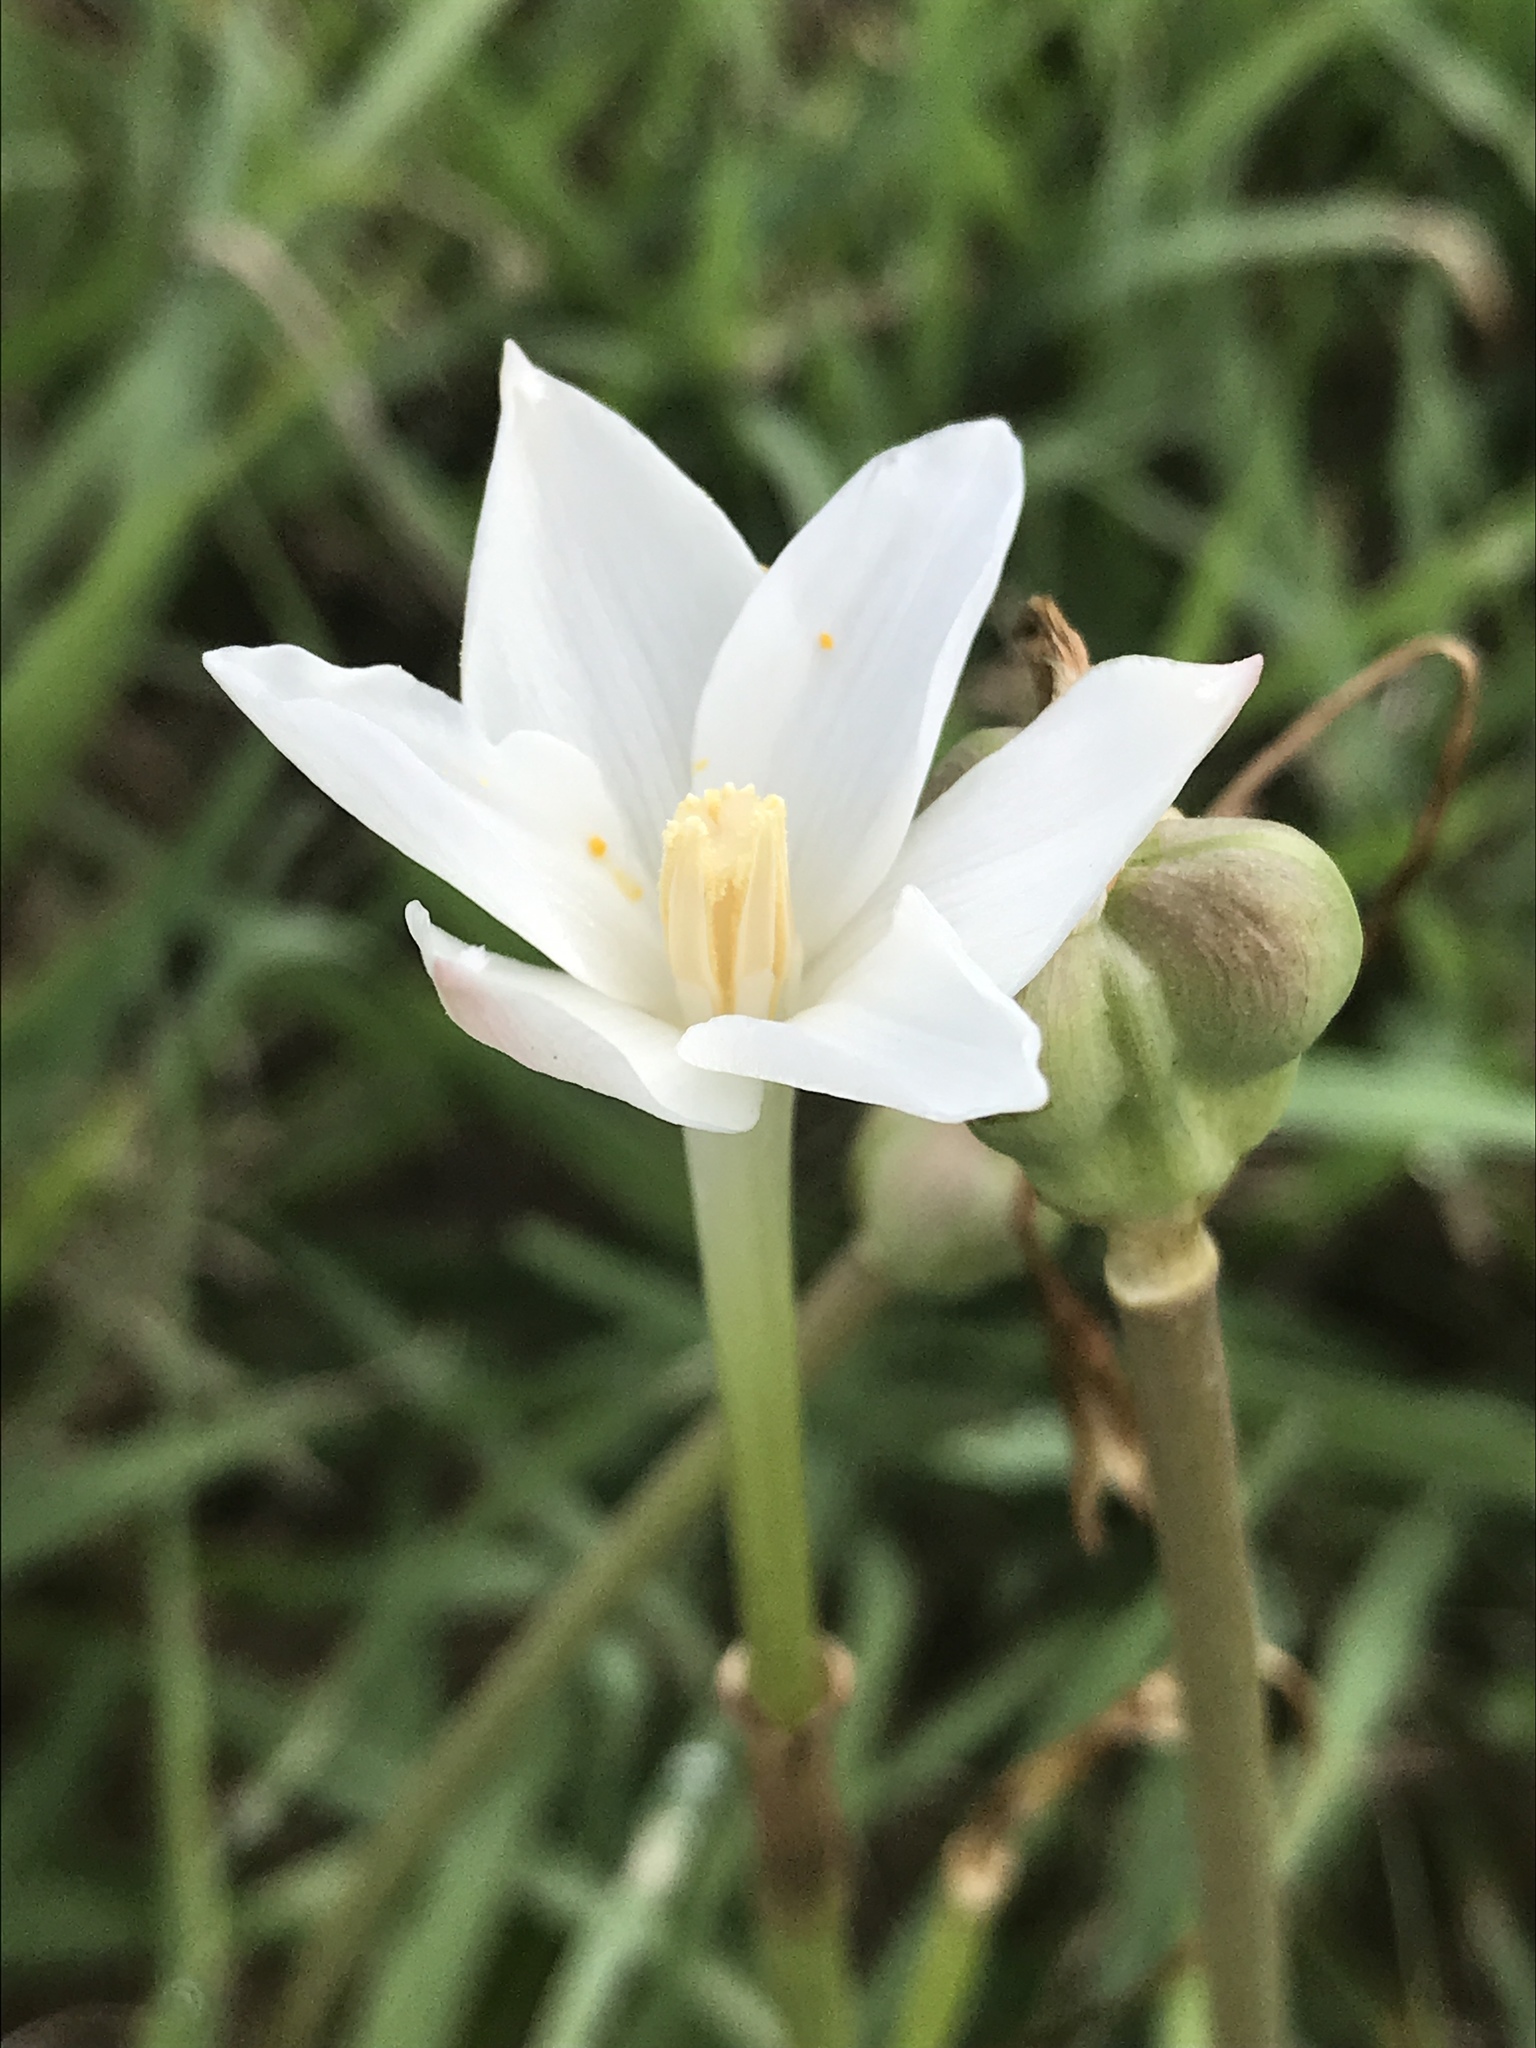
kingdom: Plantae
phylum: Tracheophyta
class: Liliopsida
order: Asparagales
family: Amaryllidaceae
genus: Zephyranthes
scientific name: Zephyranthes chlorosolen
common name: Evening rain-lily
